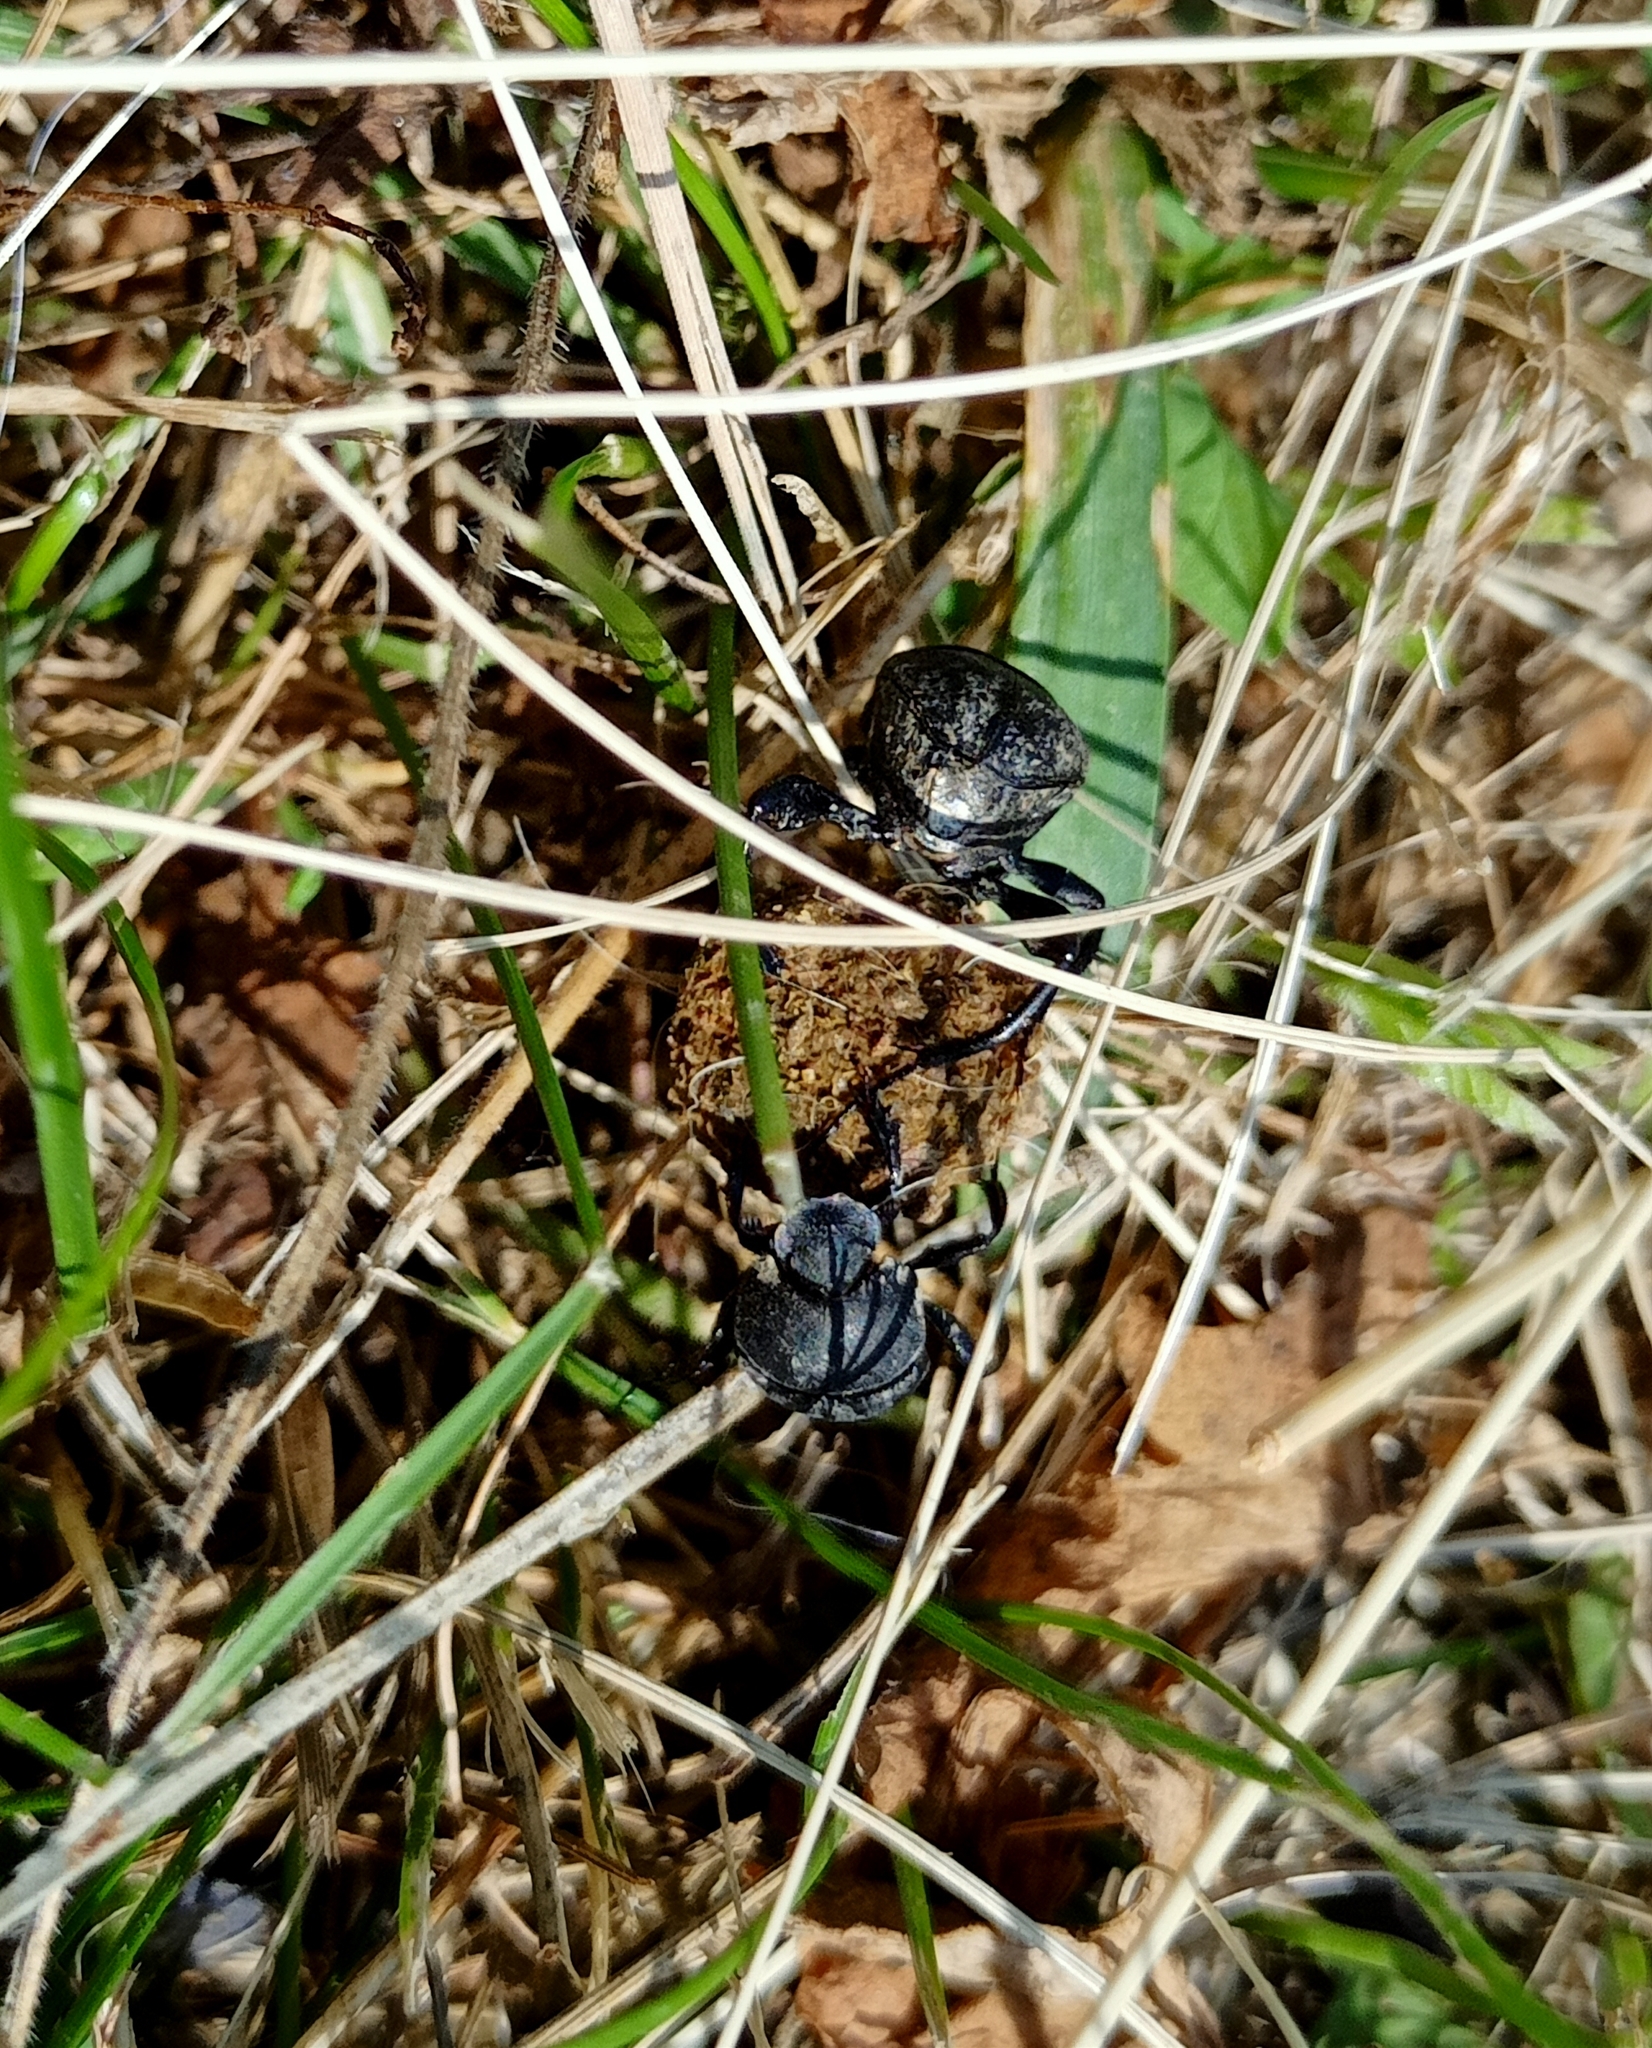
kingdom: Animalia
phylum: Arthropoda
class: Insecta
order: Coleoptera
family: Scarabaeidae
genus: Sisyphus
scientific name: Sisyphus schaefferi
